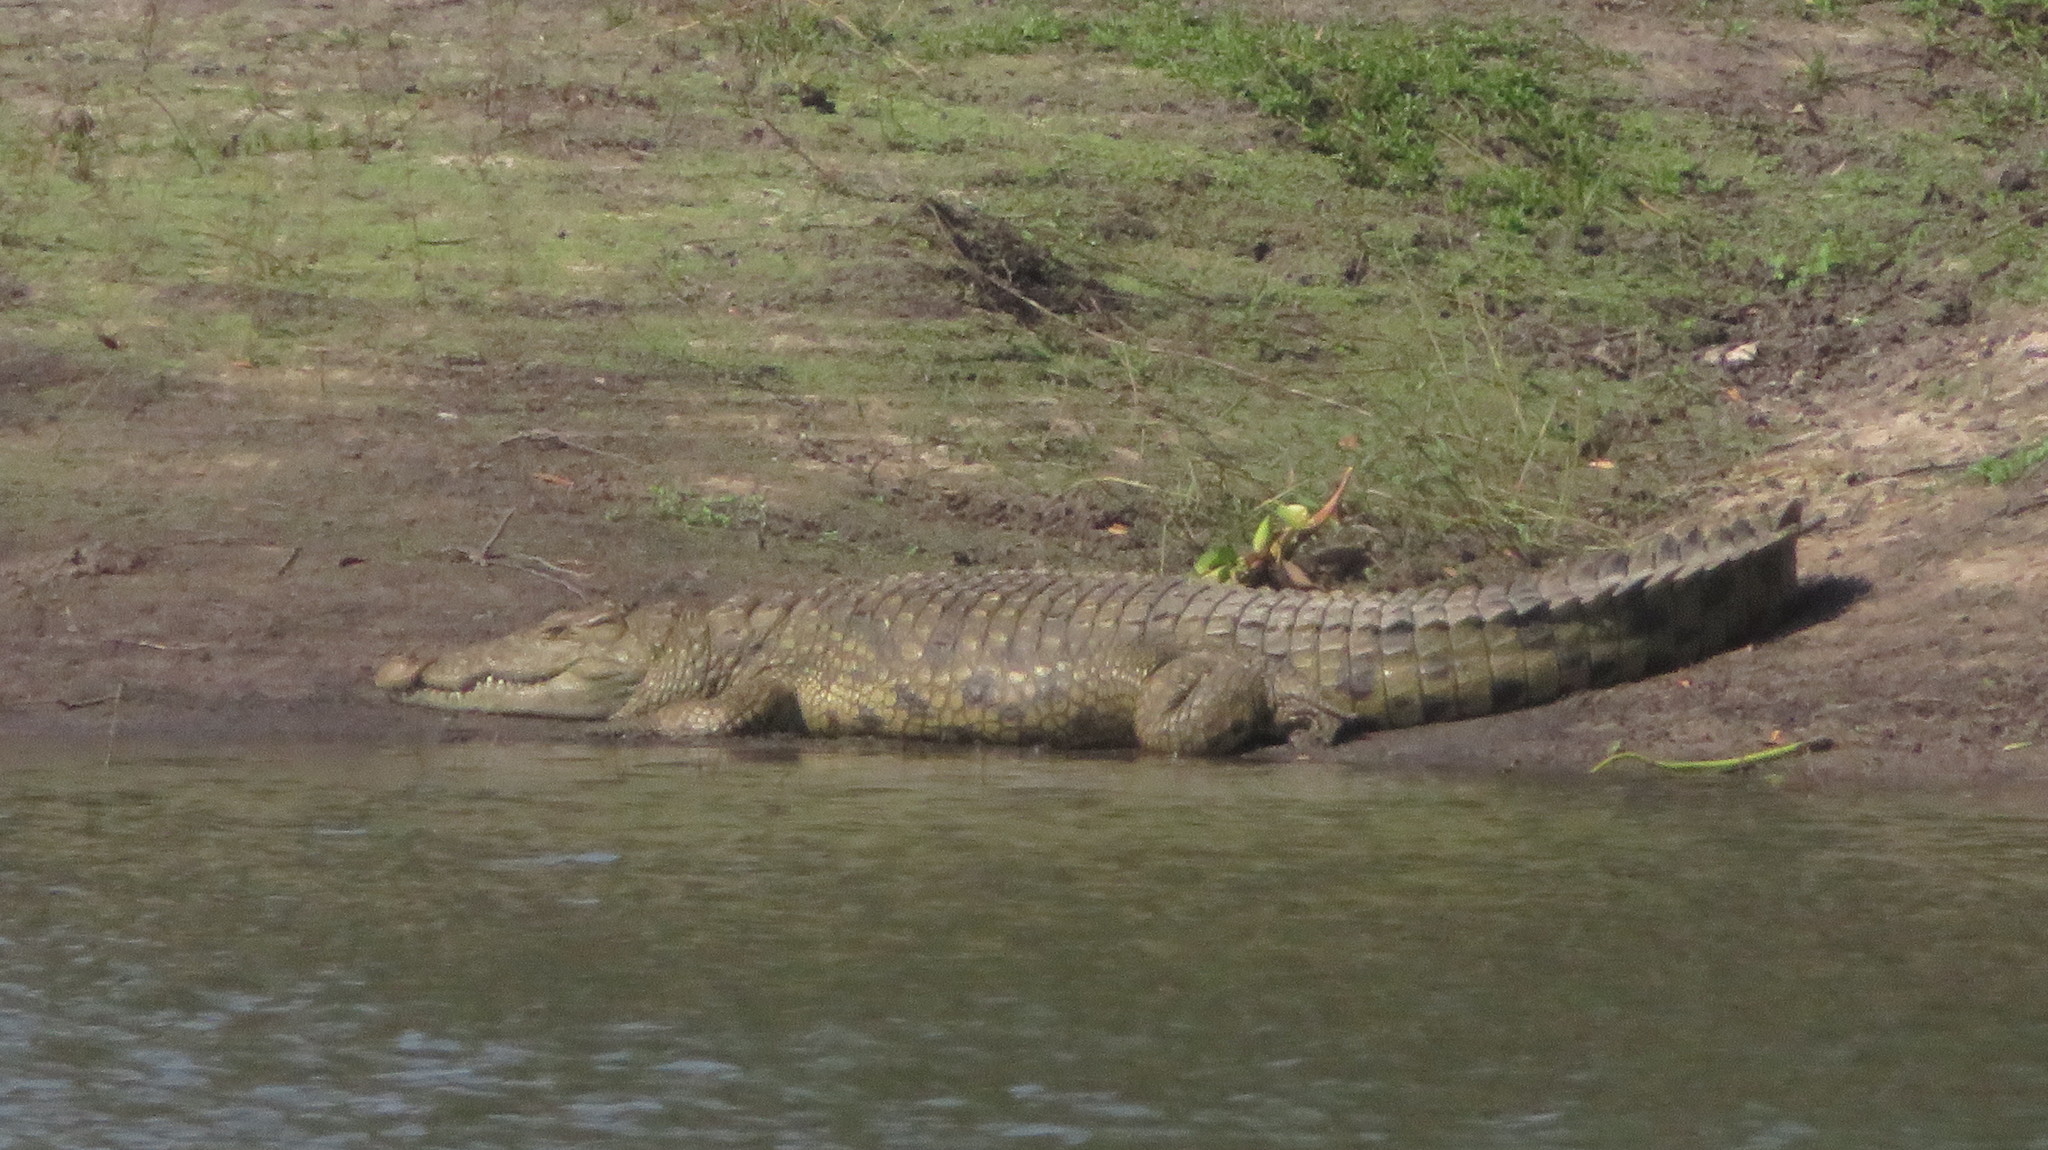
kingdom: Animalia
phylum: Chordata
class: Crocodylia
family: Crocodylidae
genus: Crocodylus
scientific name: Crocodylus niloticus
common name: Nile crocodile
